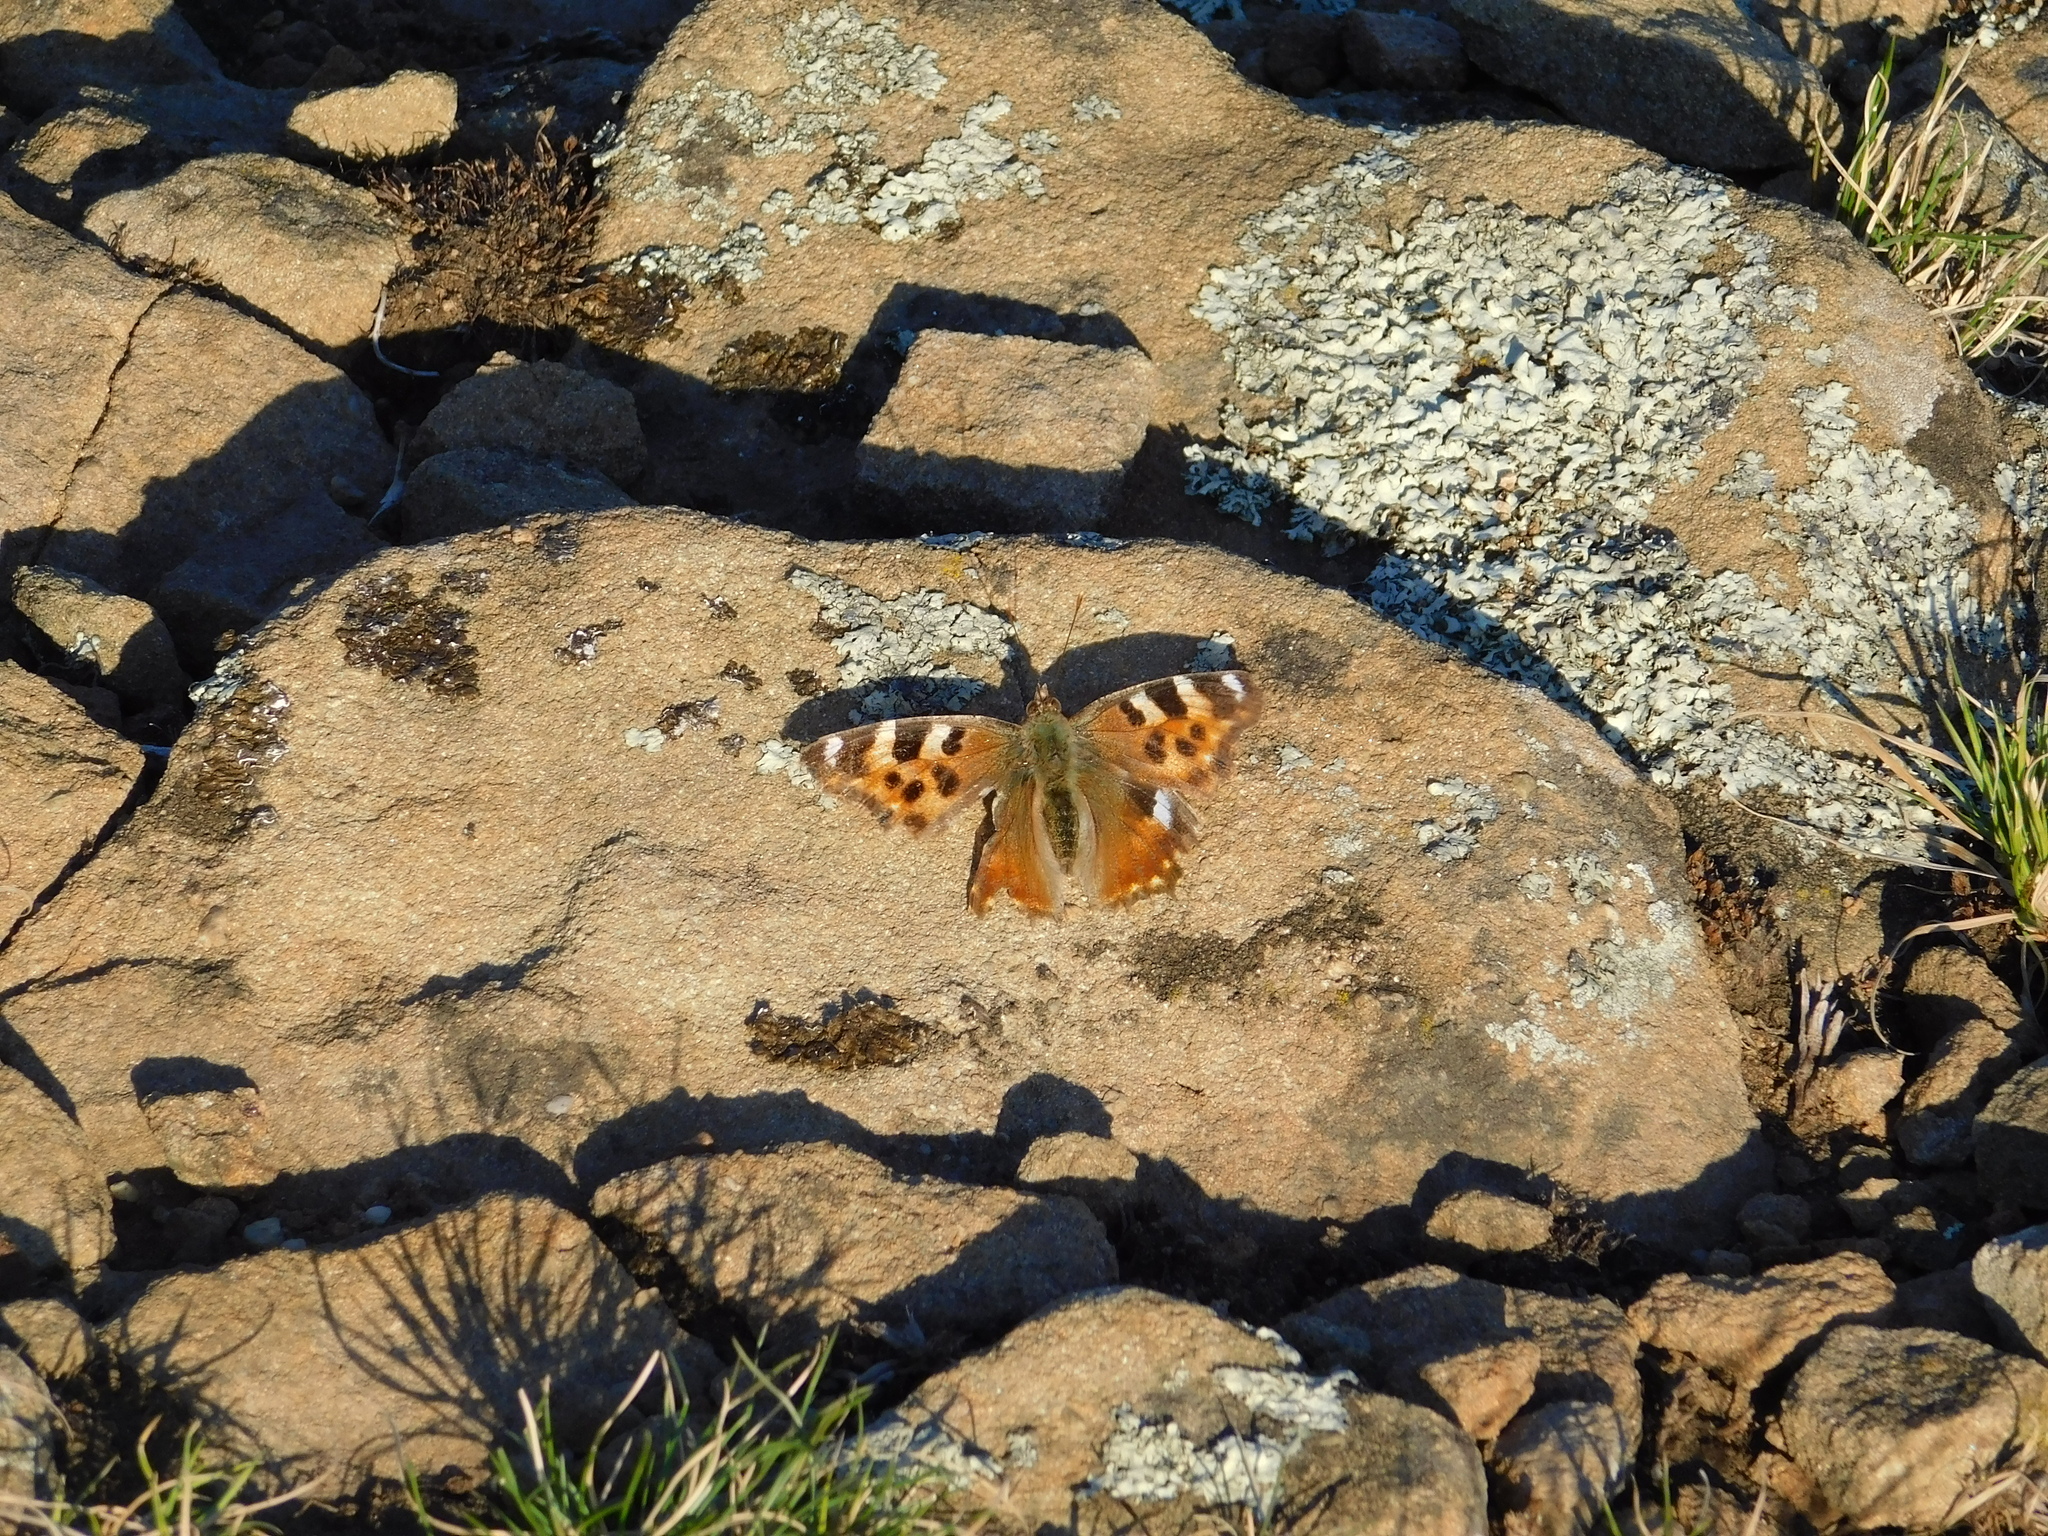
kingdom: Animalia
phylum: Arthropoda
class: Insecta
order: Lepidoptera
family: Nymphalidae
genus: Polygonia
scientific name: Polygonia vaualbum
